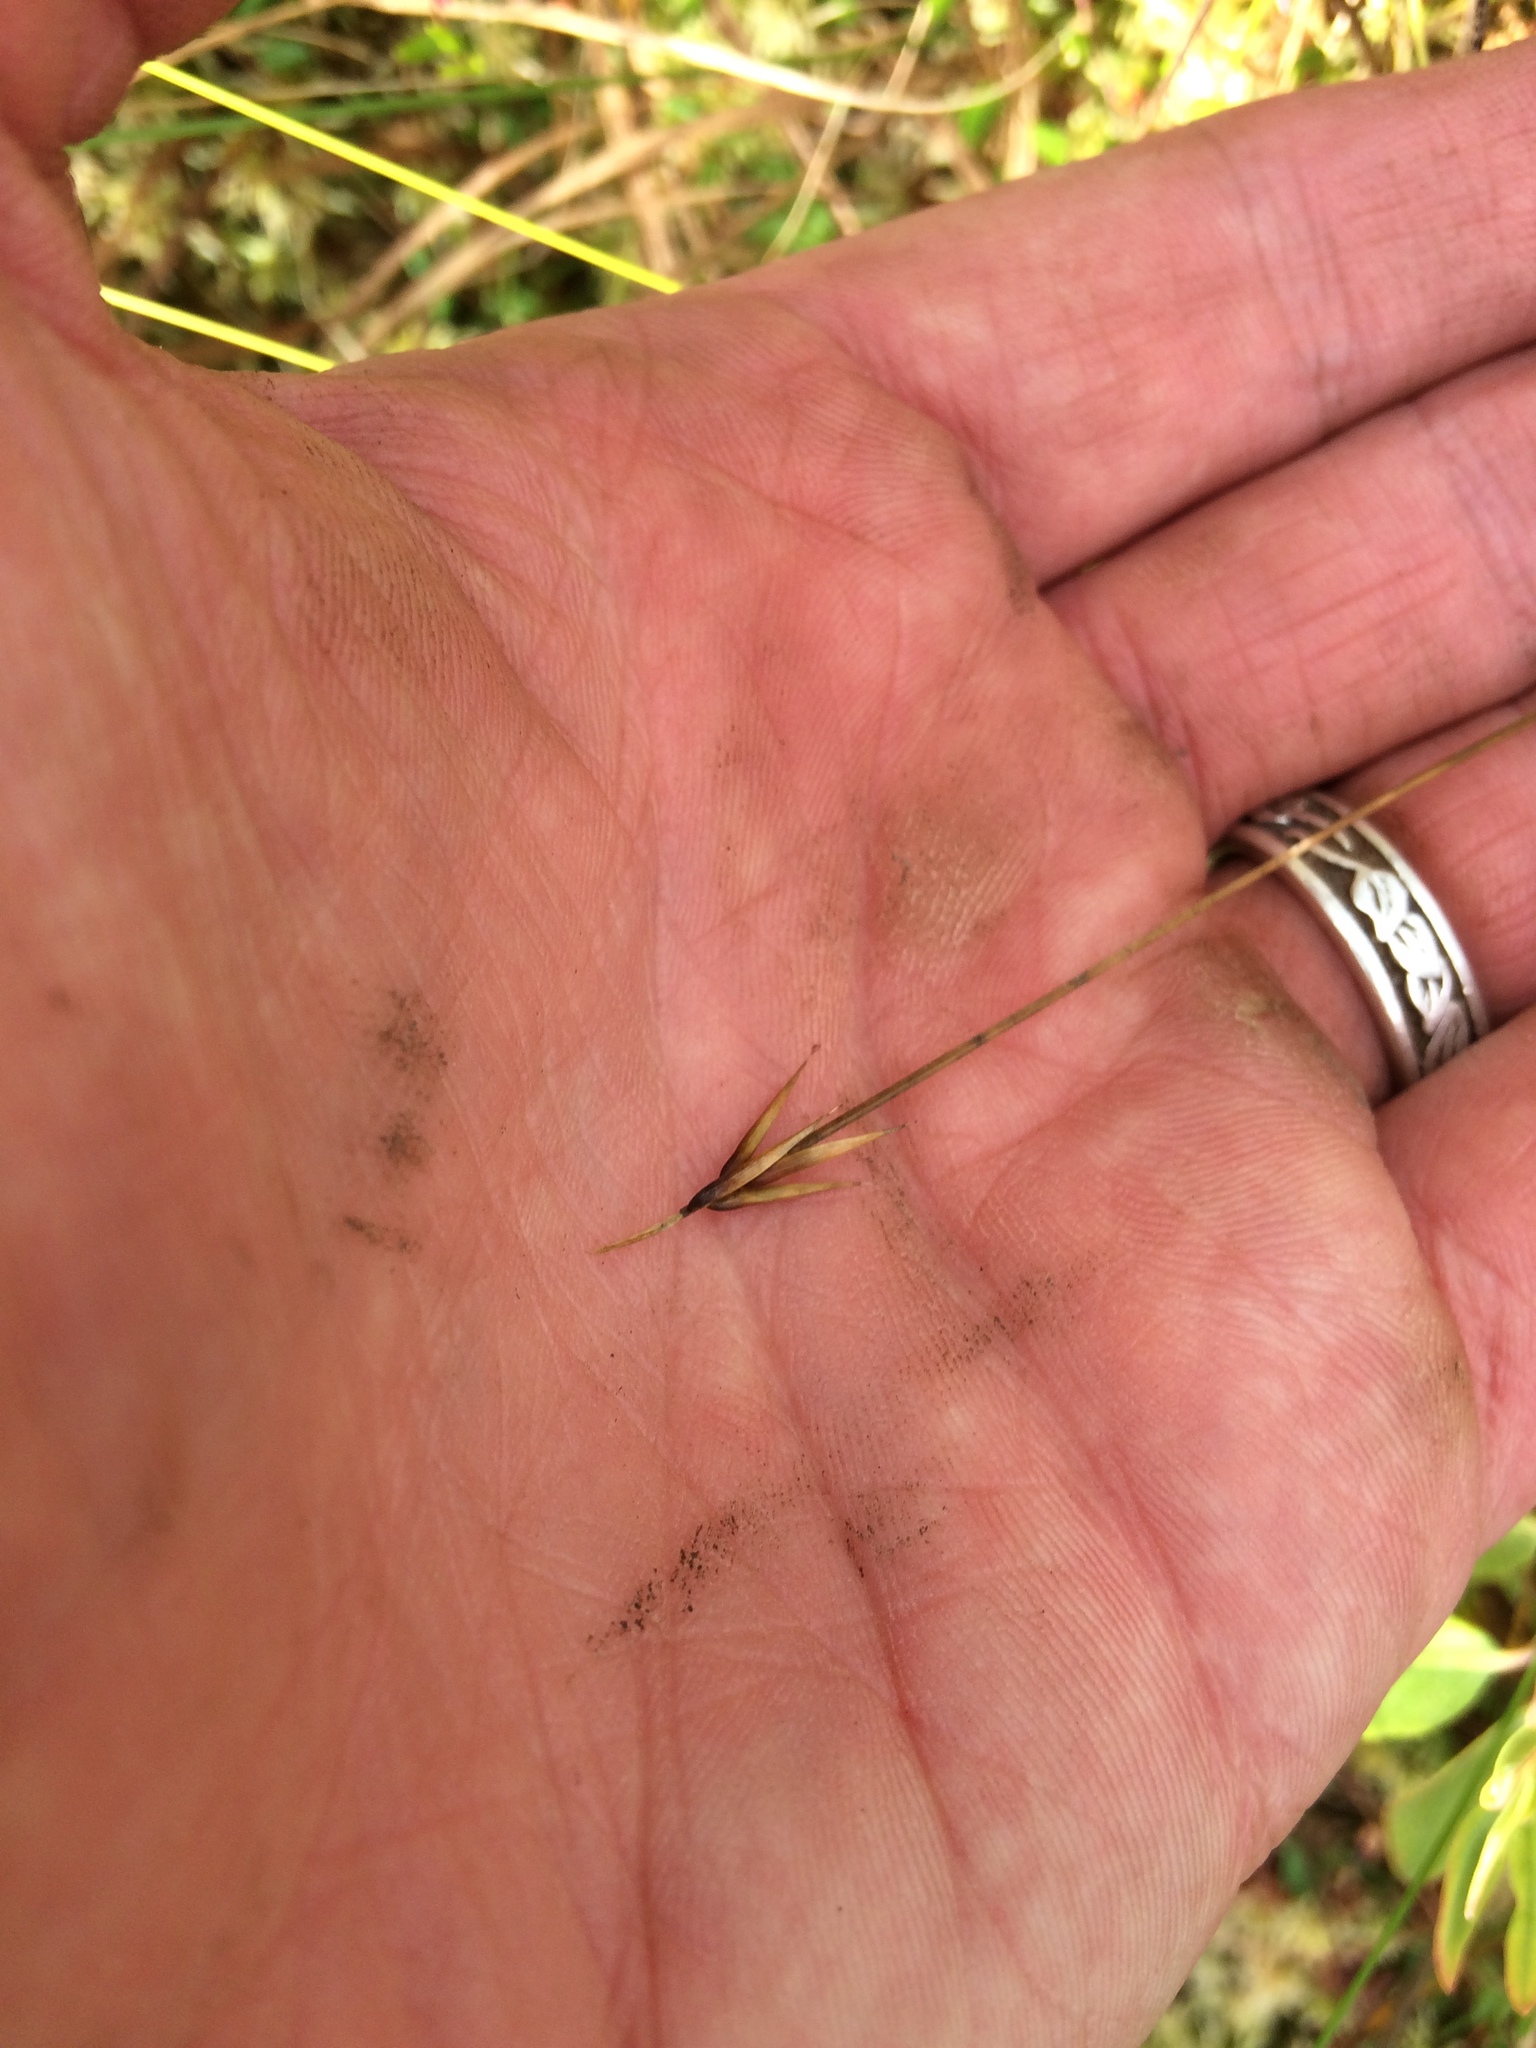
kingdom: Plantae
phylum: Tracheophyta
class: Liliopsida
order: Poales
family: Cyperaceae
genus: Carex
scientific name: Carex pauciflora
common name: Few-flowered sedge
